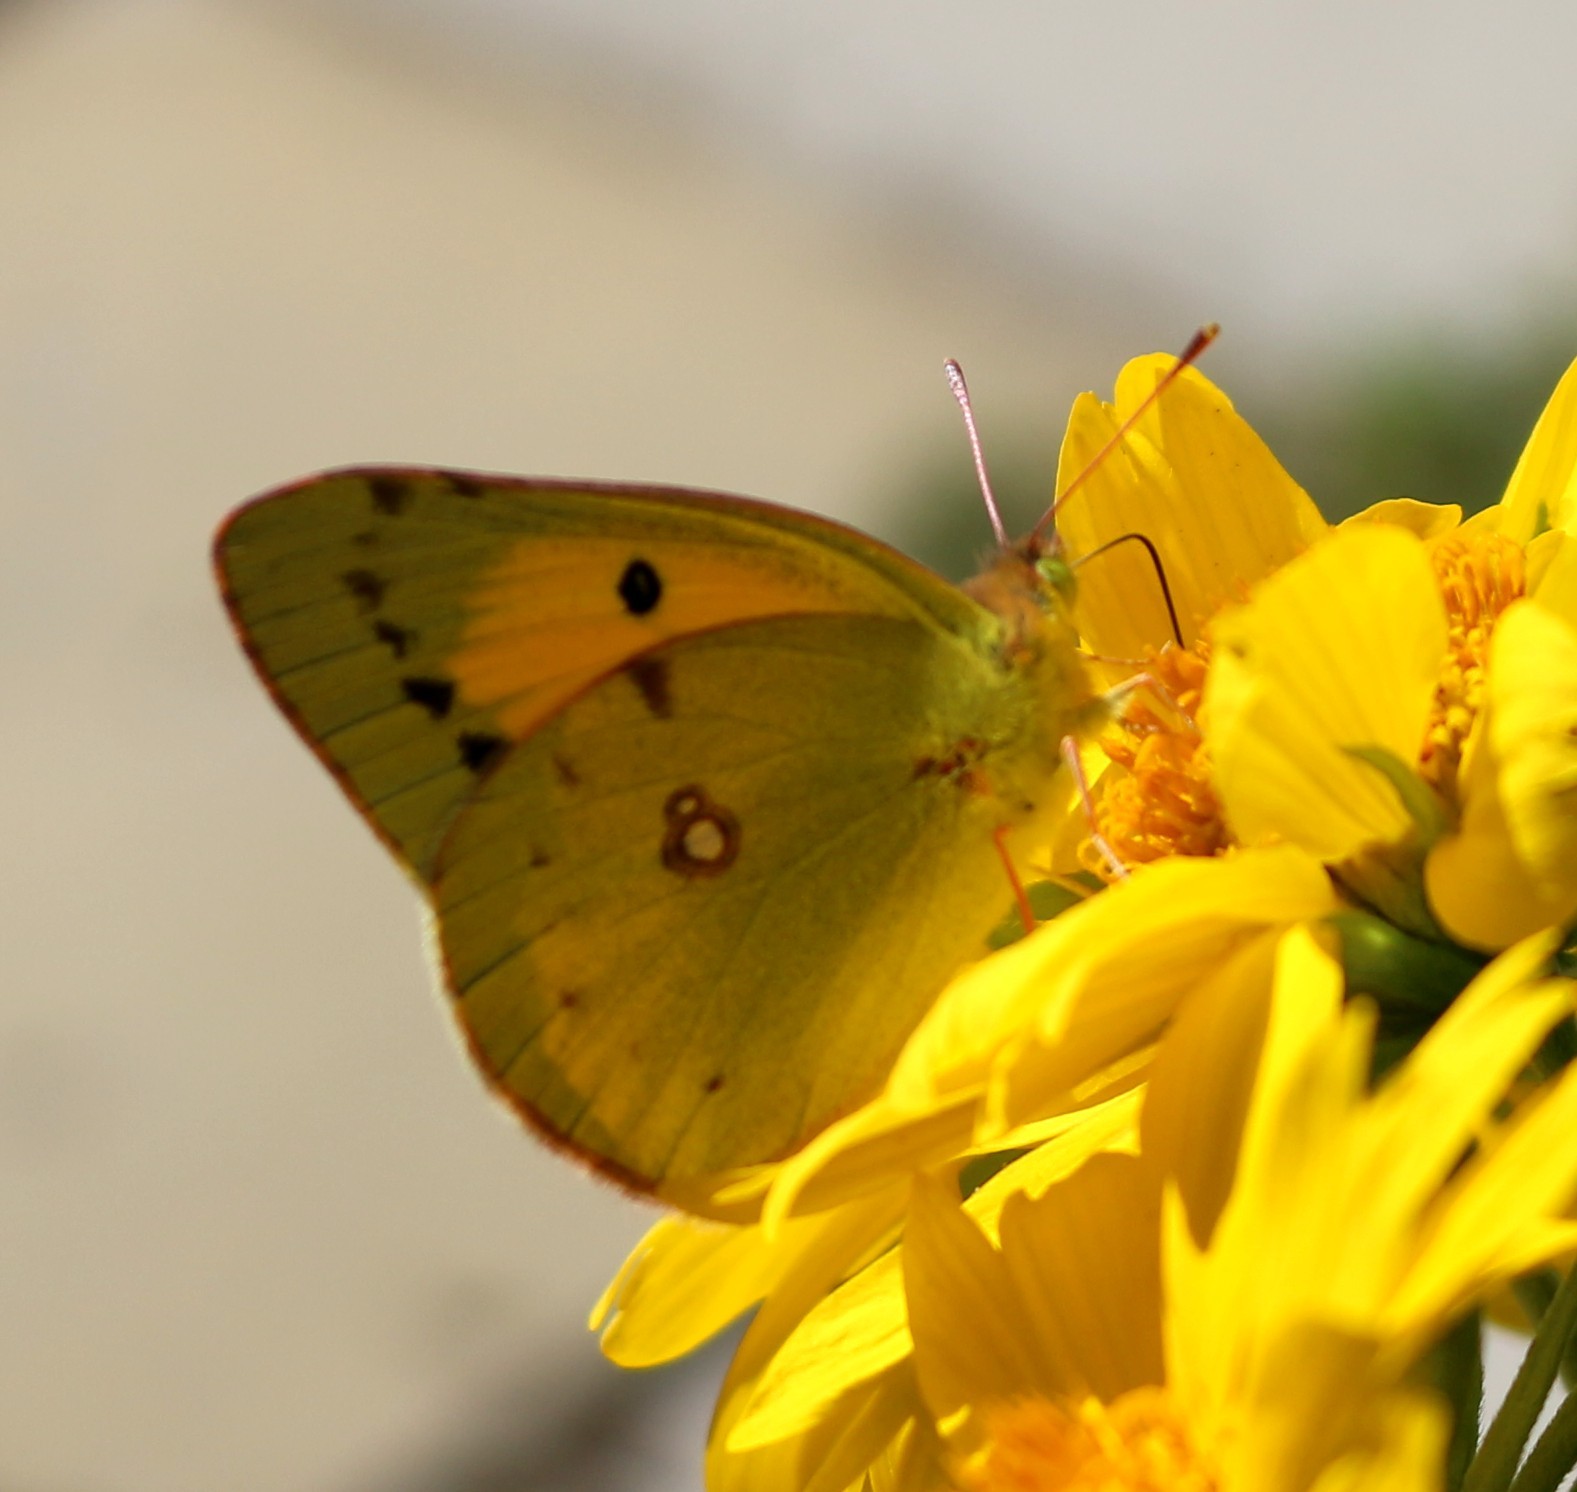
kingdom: Animalia
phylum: Arthropoda
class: Insecta
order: Lepidoptera
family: Pieridae
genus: Colias
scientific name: Colias croceus
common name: Clouded yellow
